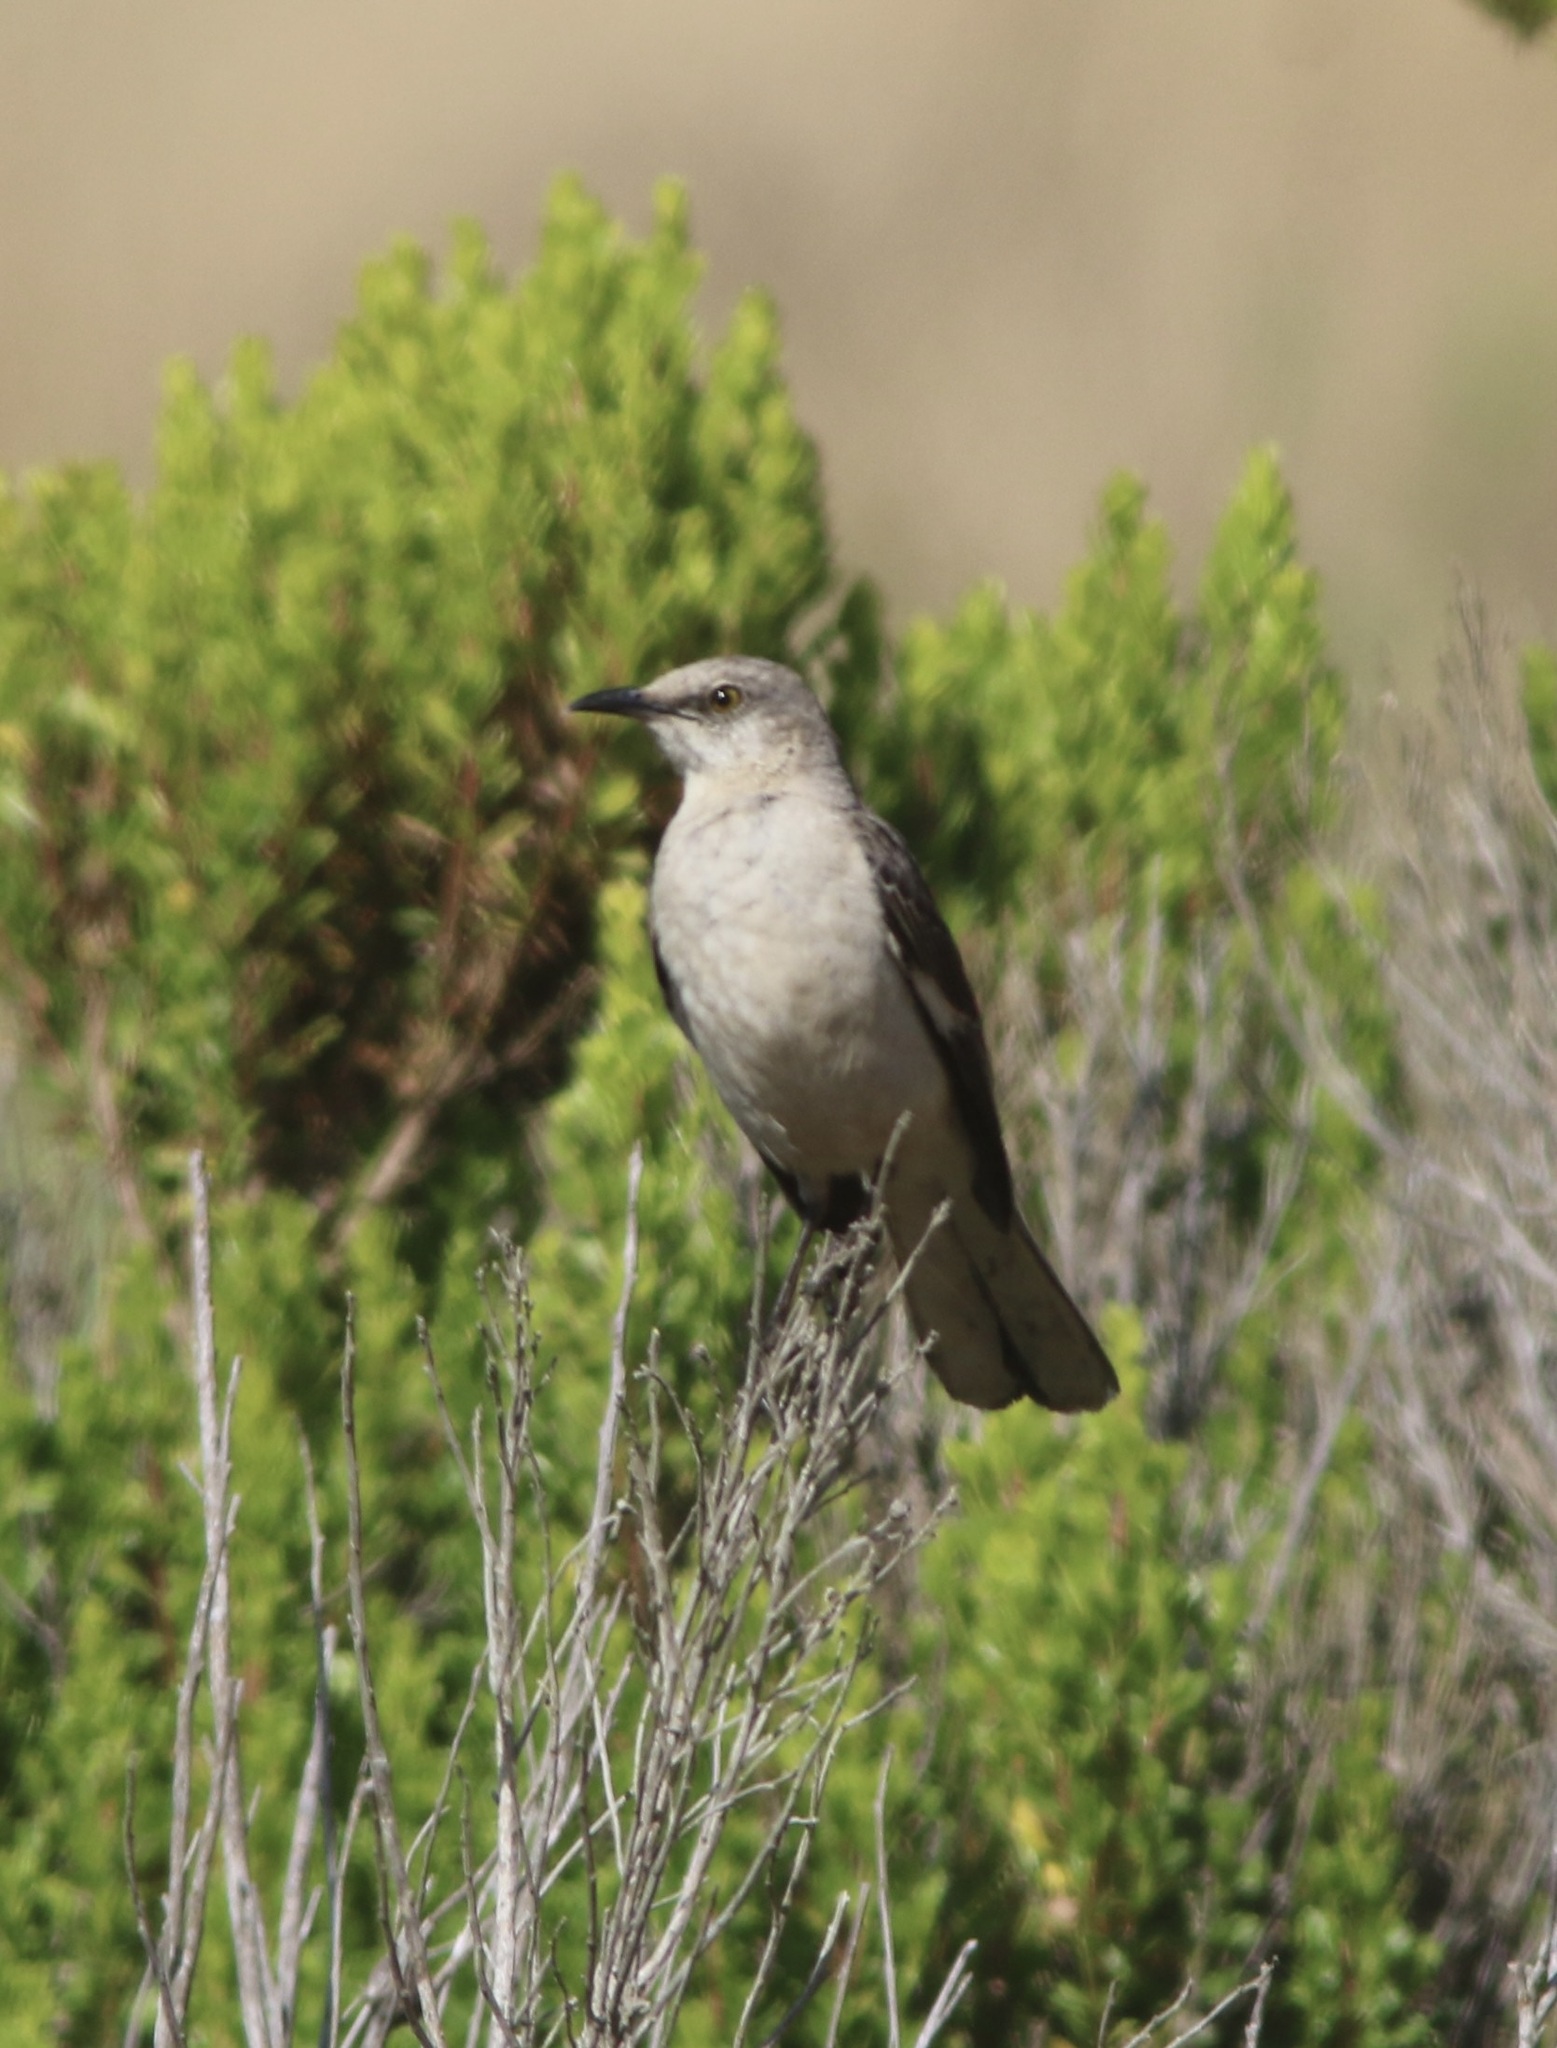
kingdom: Animalia
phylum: Chordata
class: Aves
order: Passeriformes
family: Mimidae
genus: Mimus
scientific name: Mimus polyglottos
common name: Northern mockingbird
